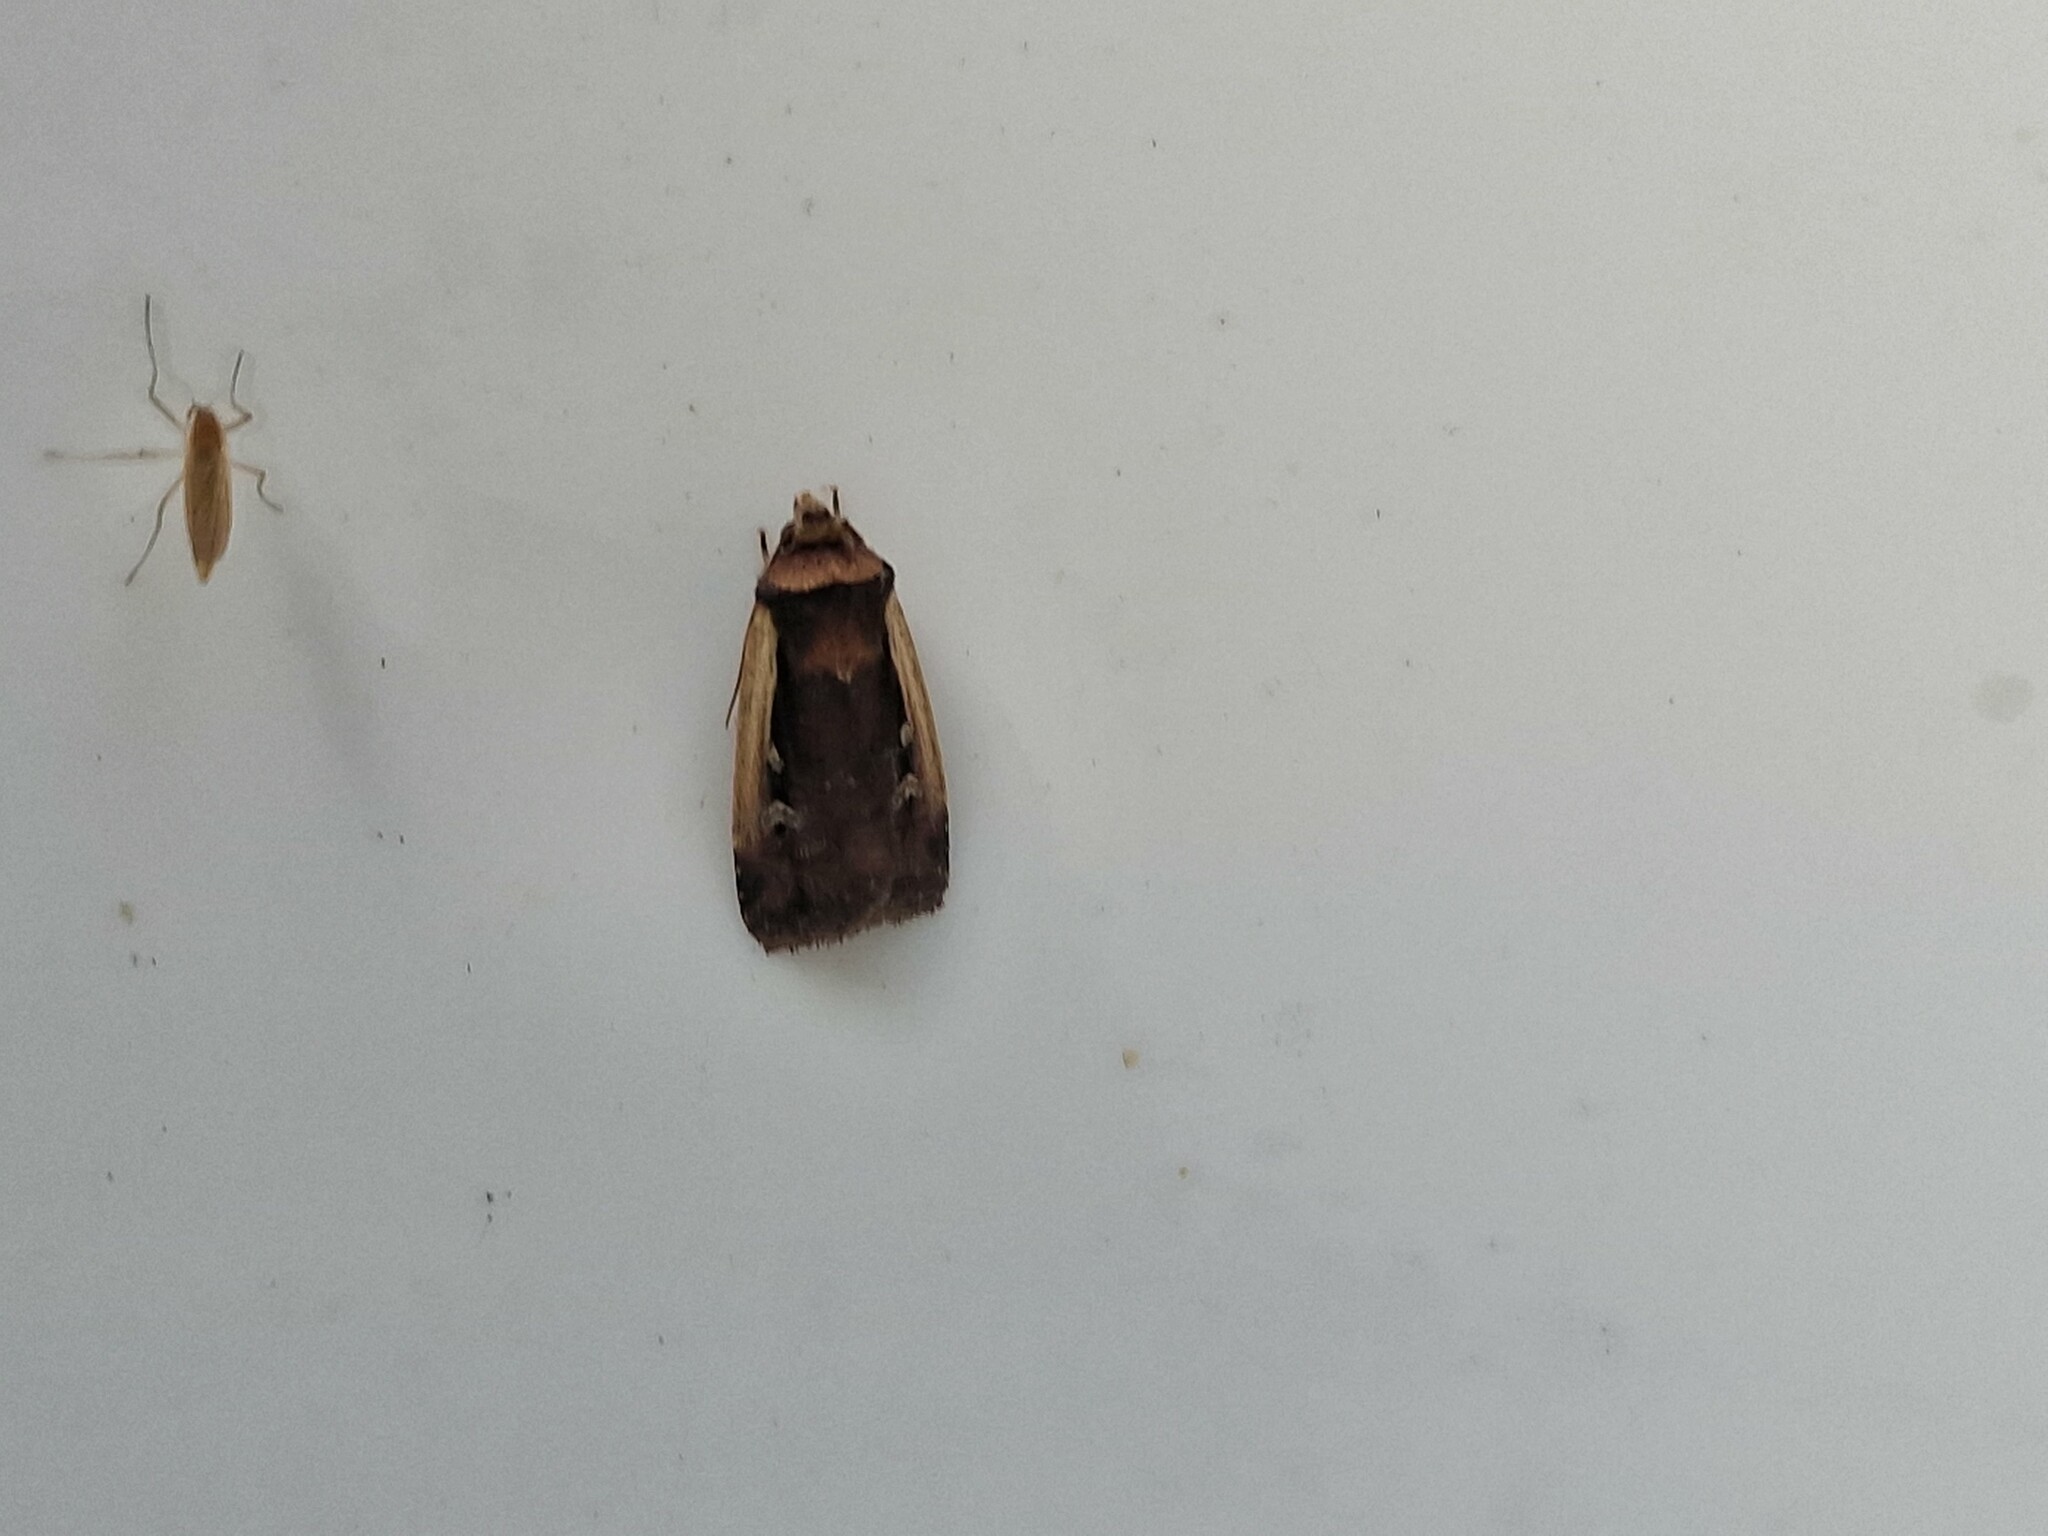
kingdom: Animalia
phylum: Arthropoda
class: Insecta
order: Lepidoptera
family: Noctuidae
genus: Ochropleura
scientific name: Ochropleura plecta
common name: Flame shoulder
